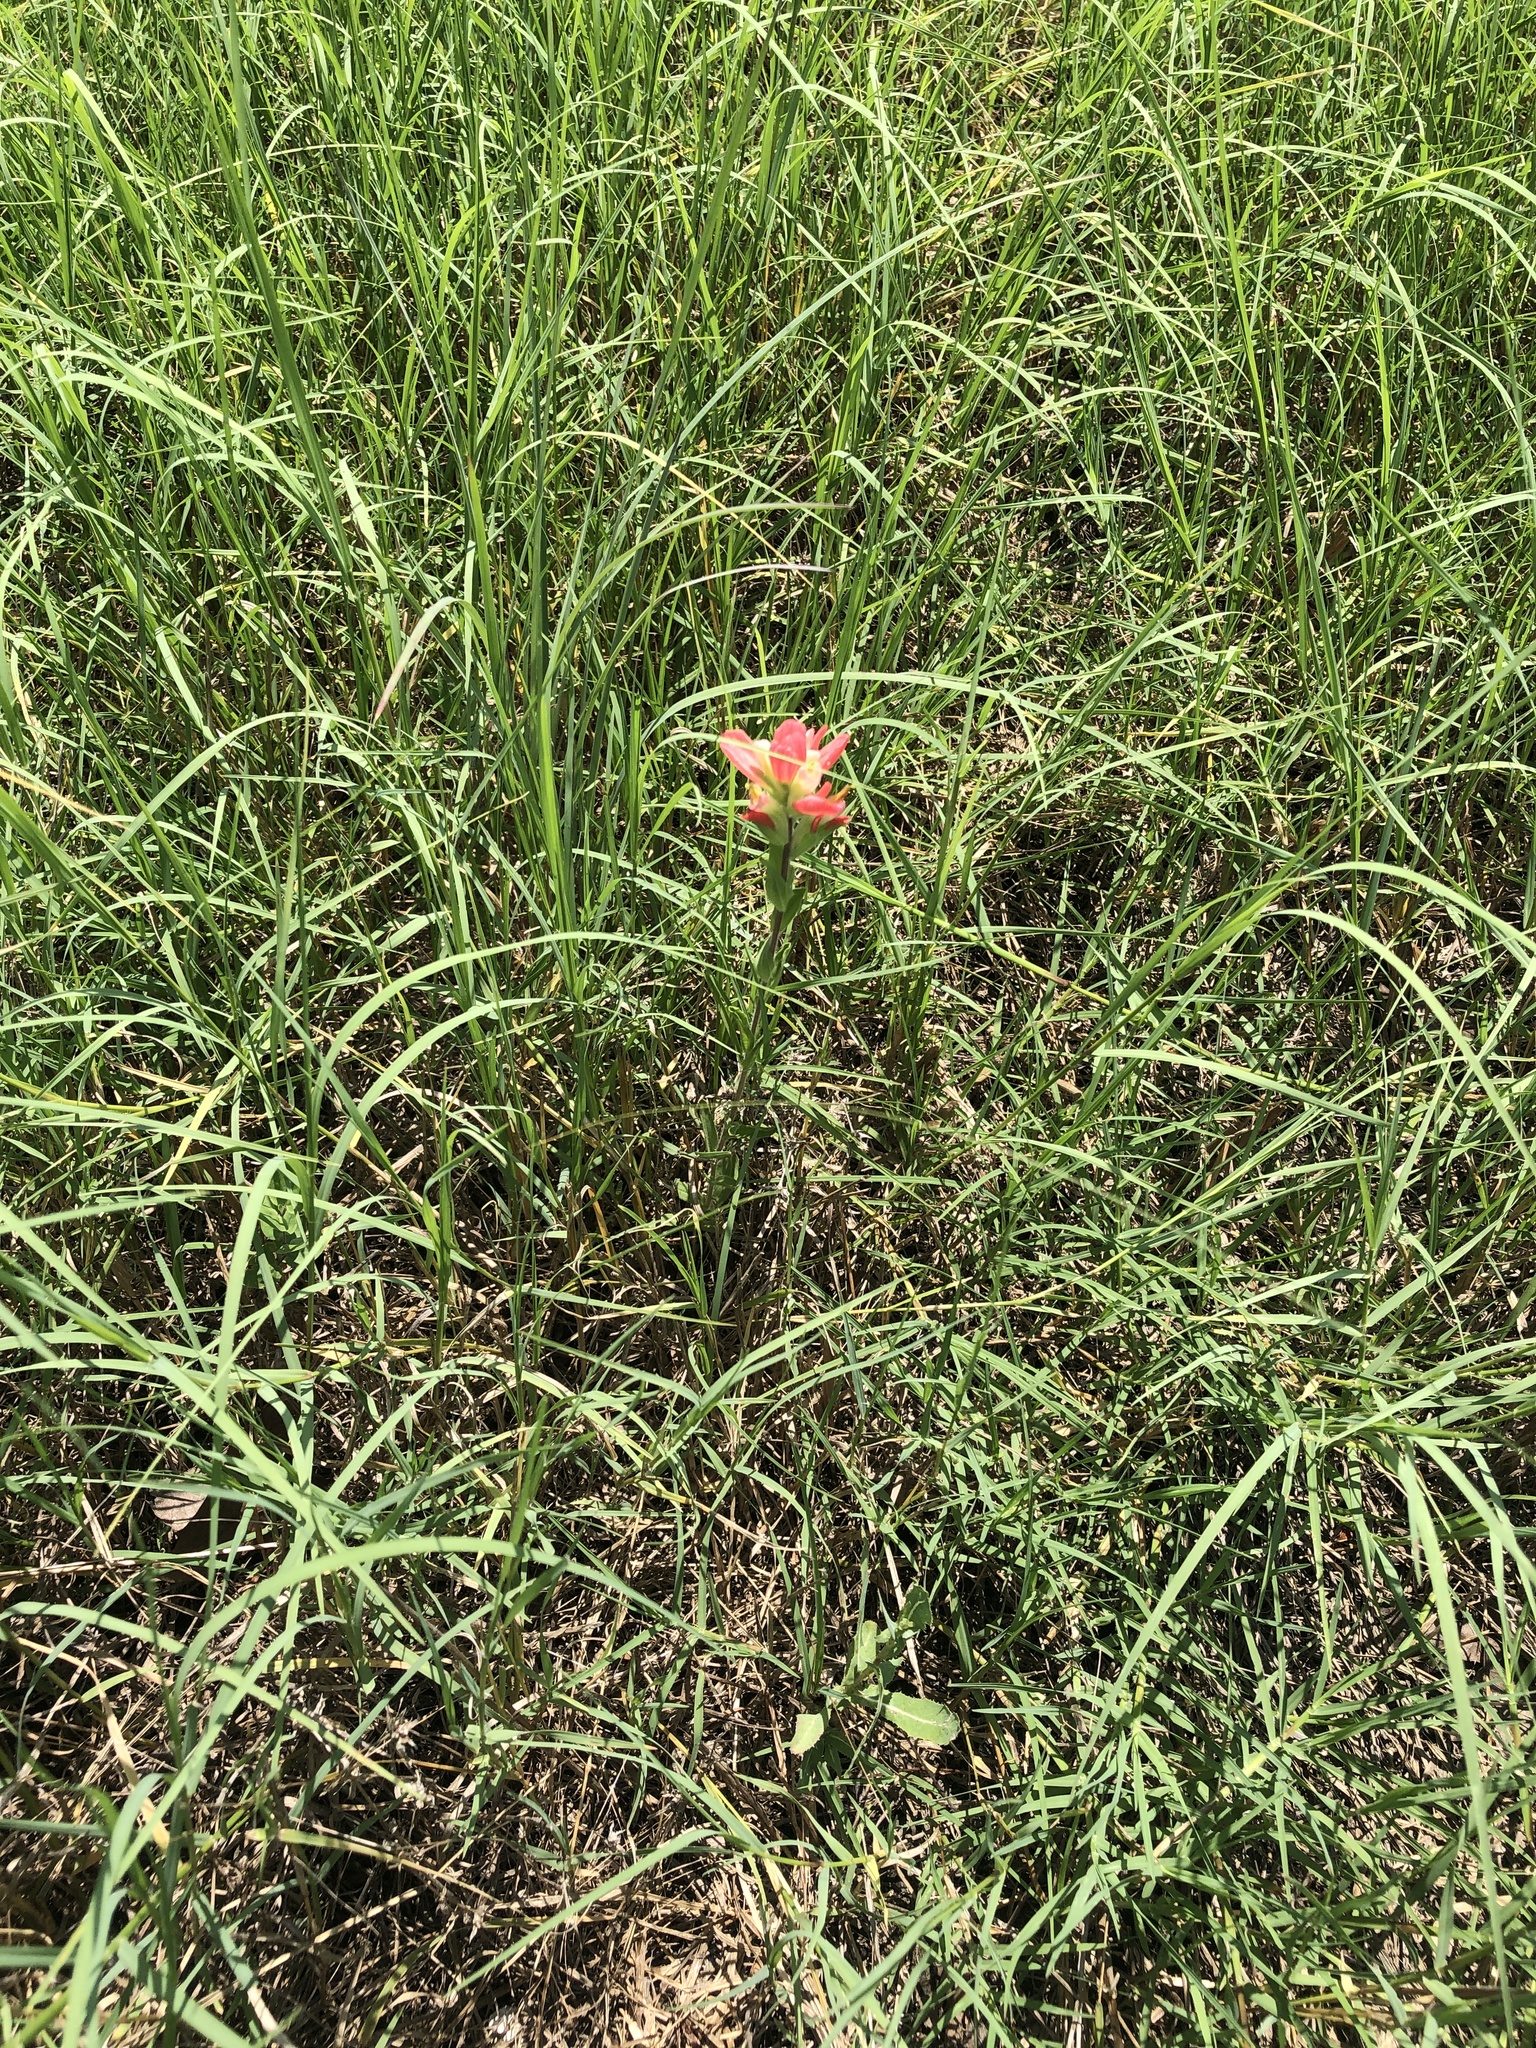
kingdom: Plantae
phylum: Tracheophyta
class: Magnoliopsida
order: Lamiales
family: Orobanchaceae
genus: Castilleja
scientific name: Castilleja indivisa
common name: Texas paintbrush
